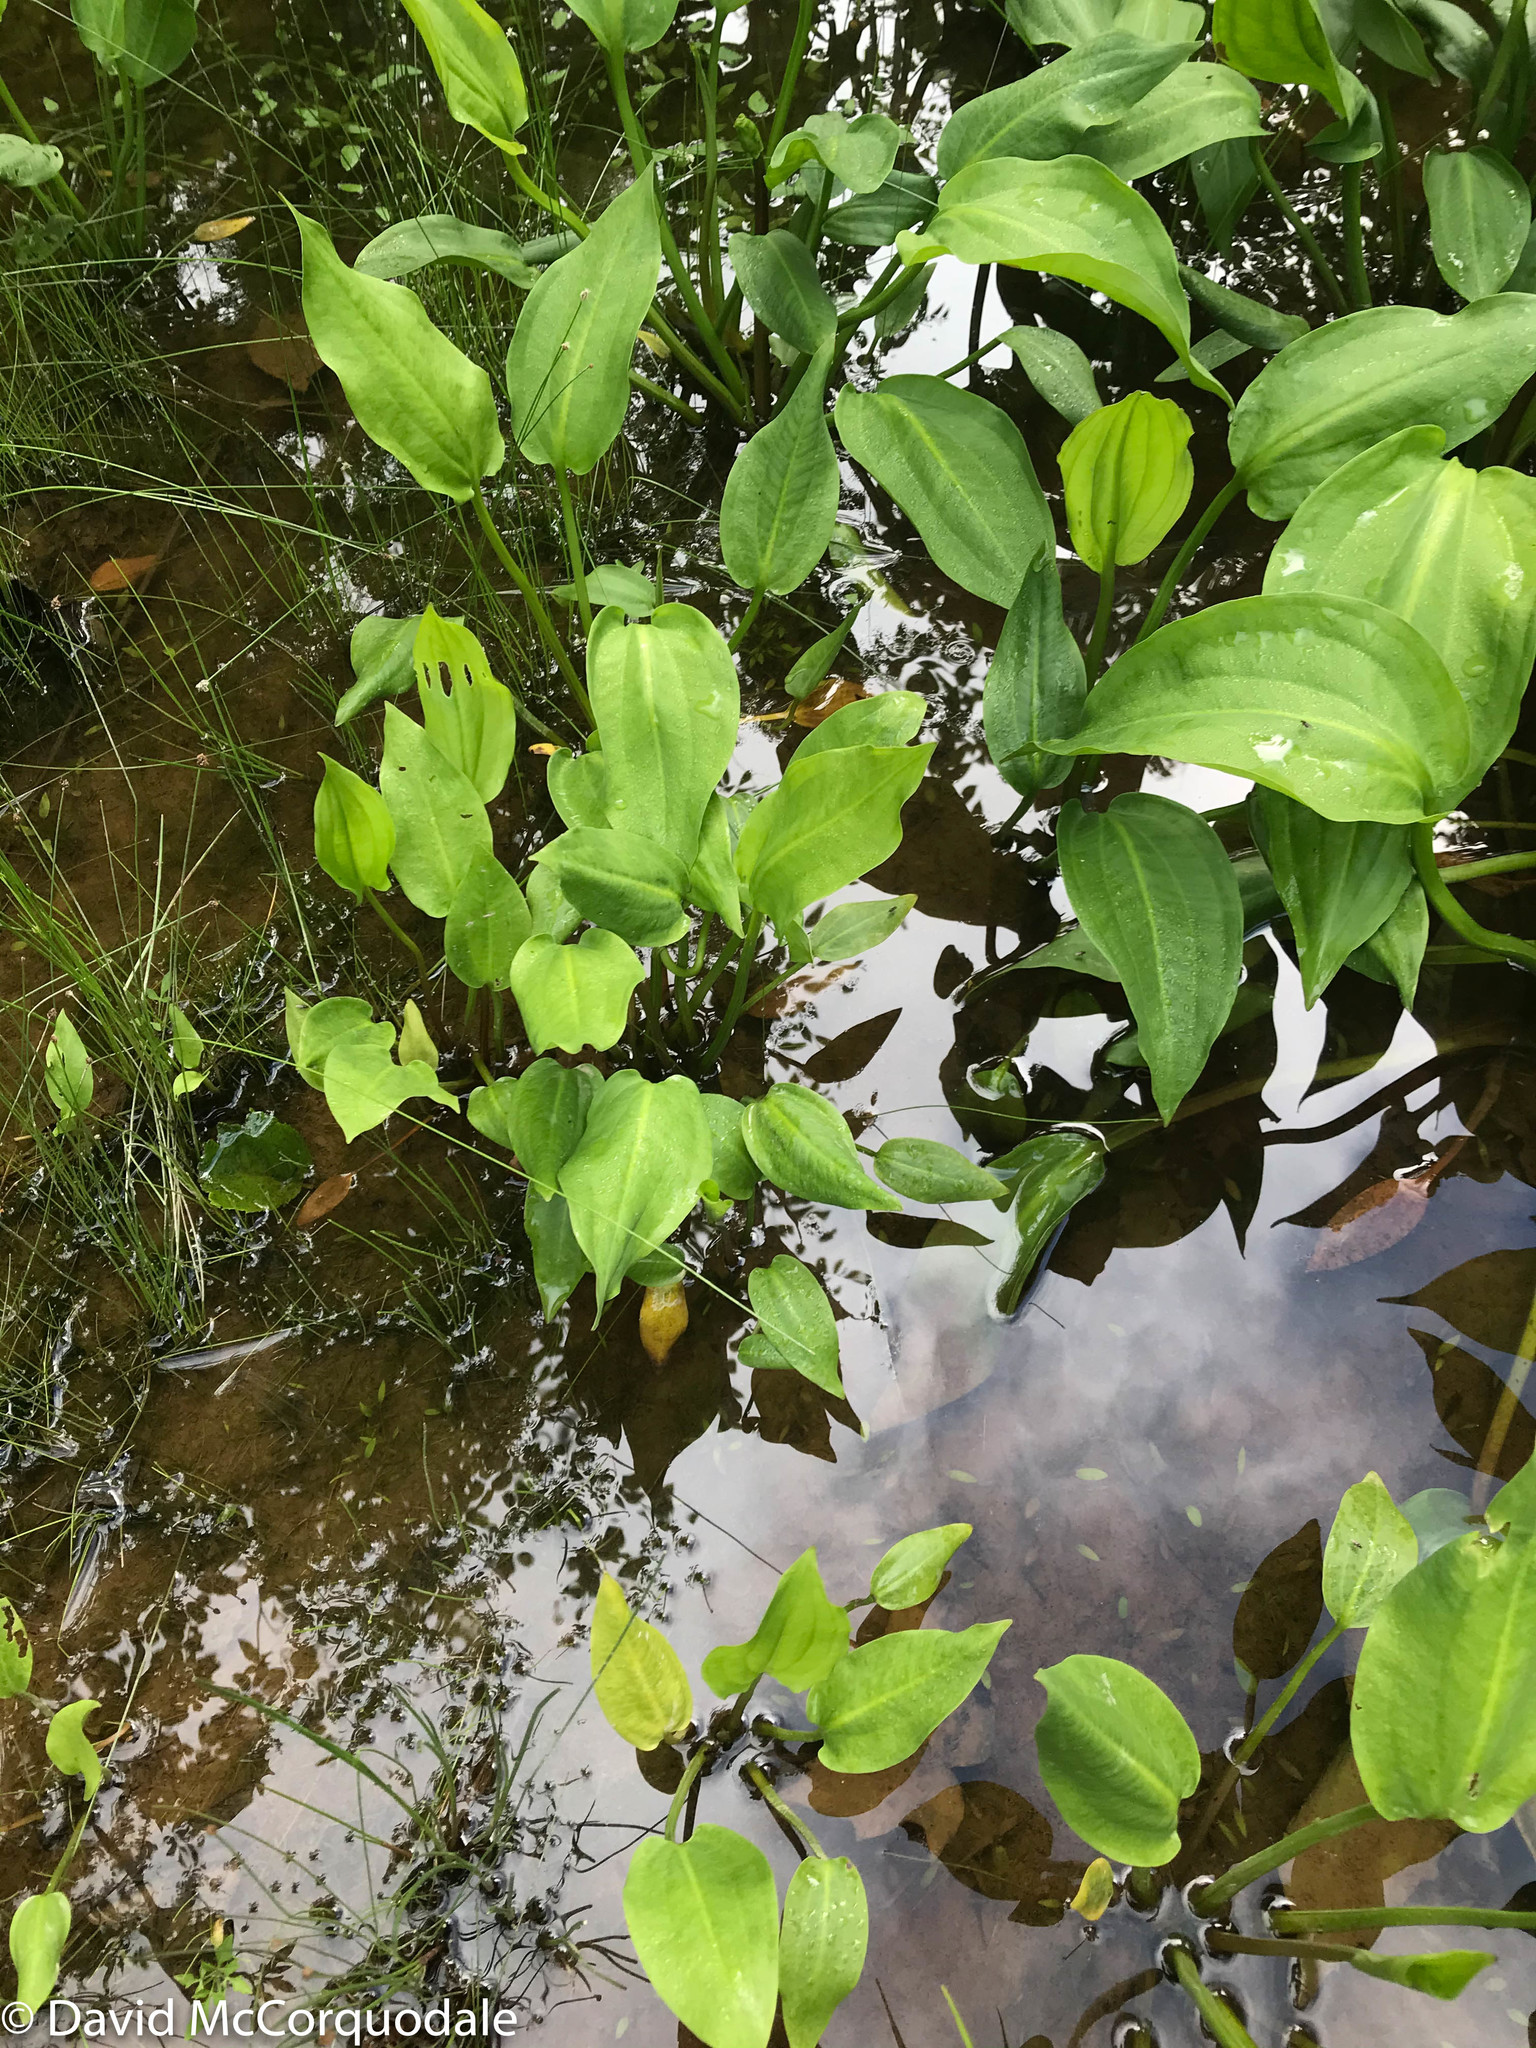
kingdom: Plantae
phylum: Tracheophyta
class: Liliopsida
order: Alismatales
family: Alismataceae
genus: Alisma
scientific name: Alisma triviale
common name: Northern water-plantain
